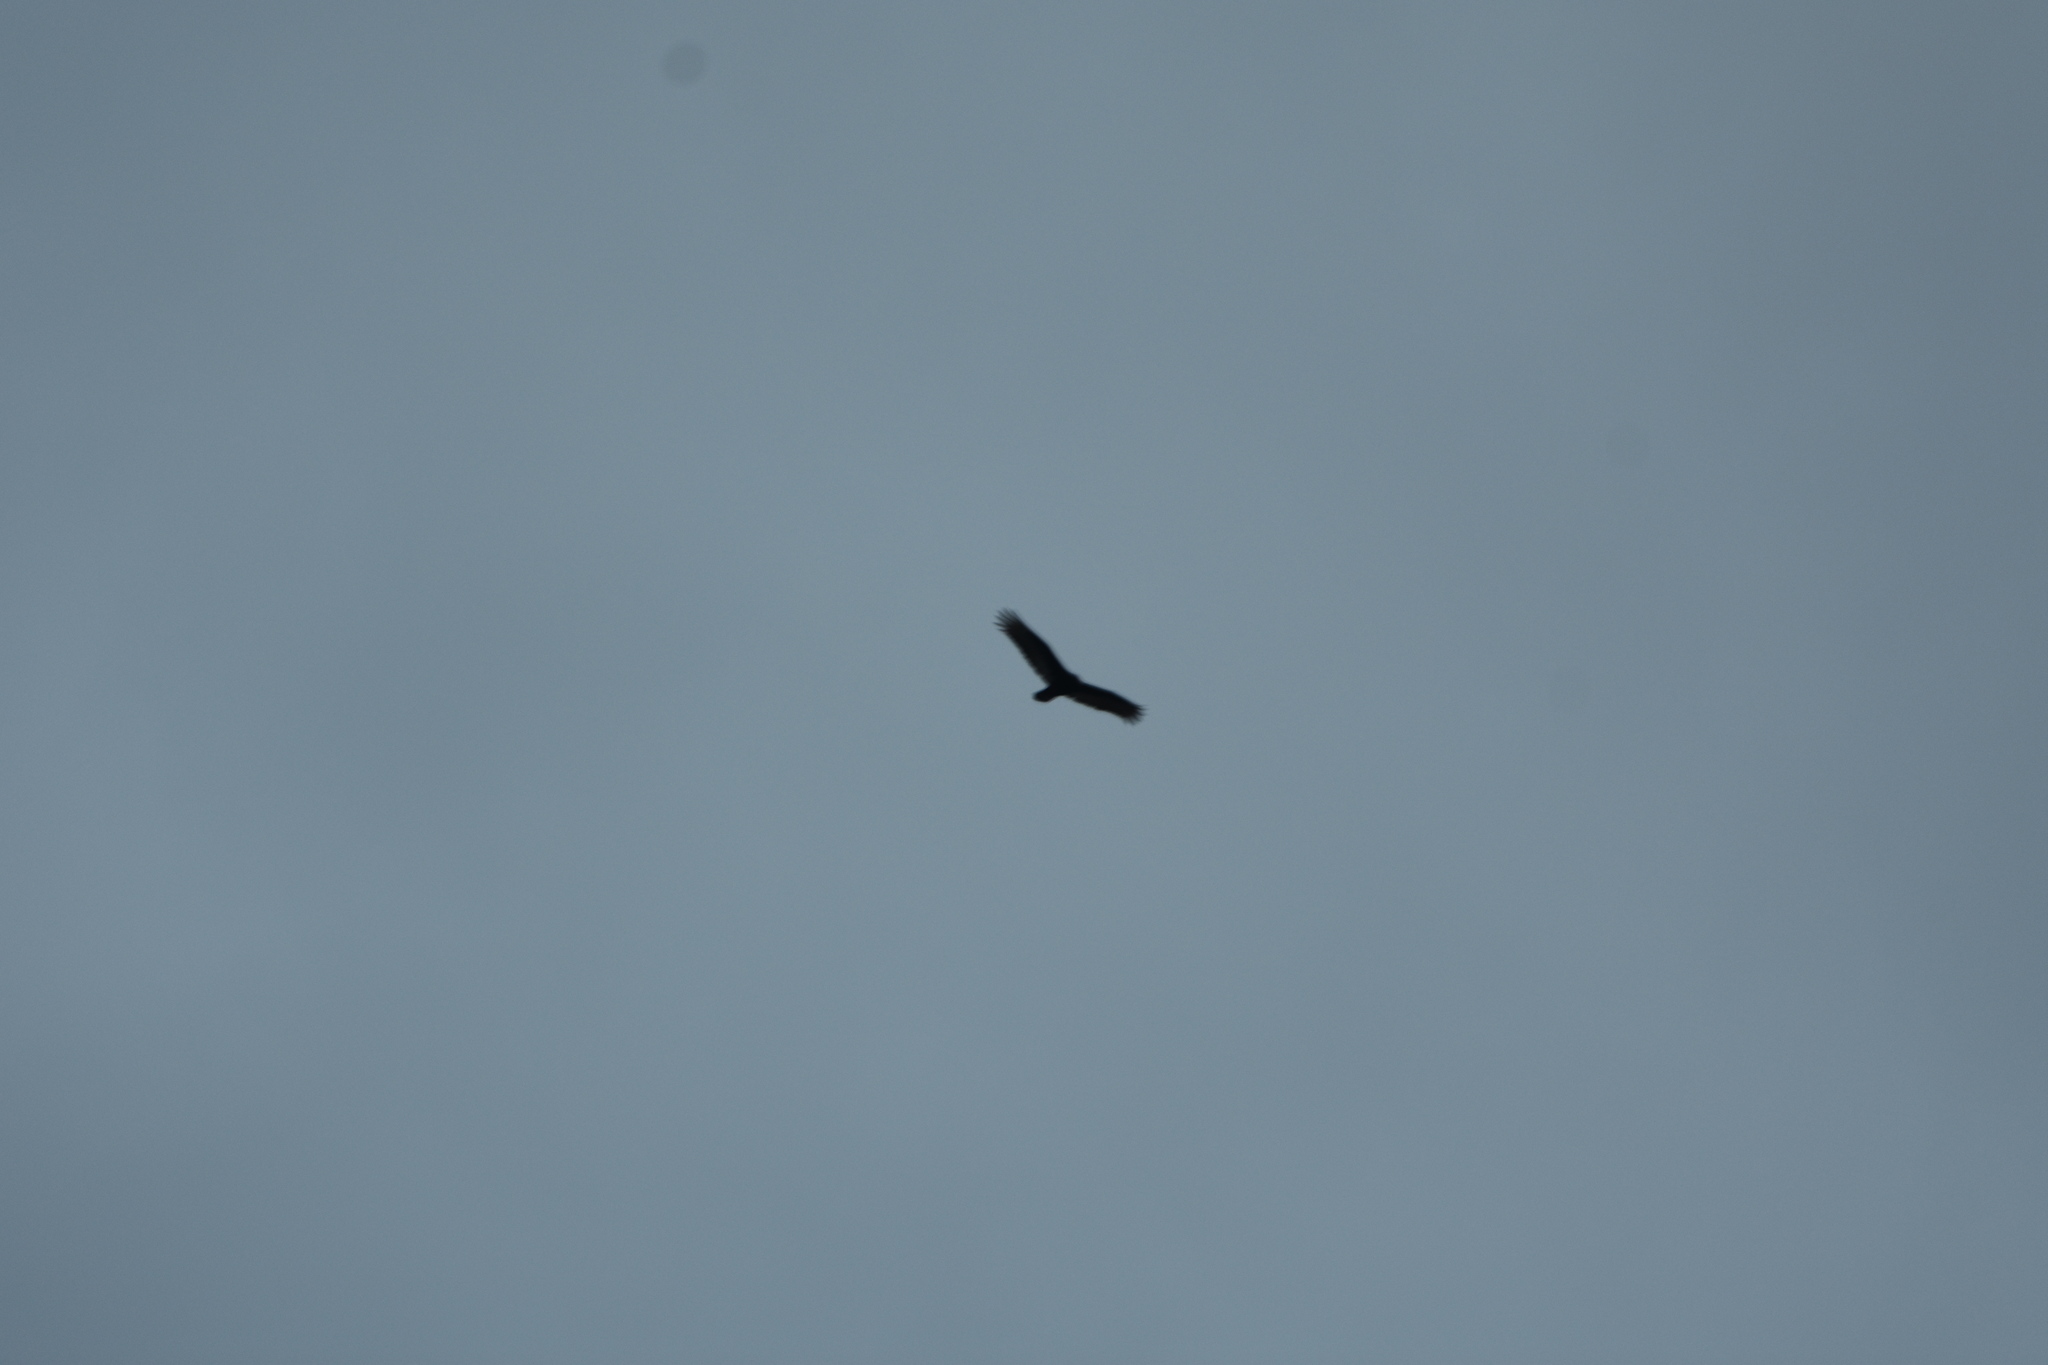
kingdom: Animalia
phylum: Chordata
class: Aves
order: Accipitriformes
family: Cathartidae
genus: Cathartes
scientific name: Cathartes aura
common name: Turkey vulture
